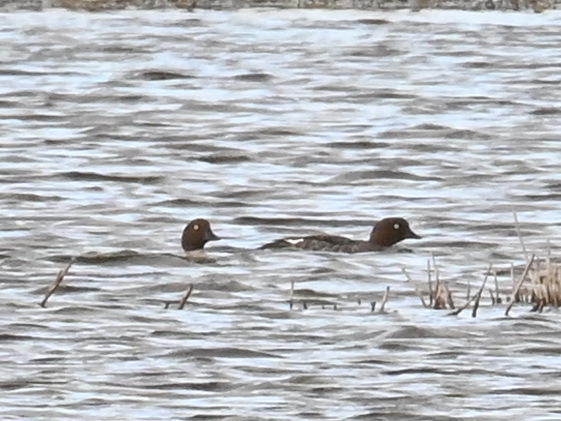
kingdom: Animalia
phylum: Chordata
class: Aves
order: Anseriformes
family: Anatidae
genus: Bucephala
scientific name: Bucephala clangula
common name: Common goldeneye
